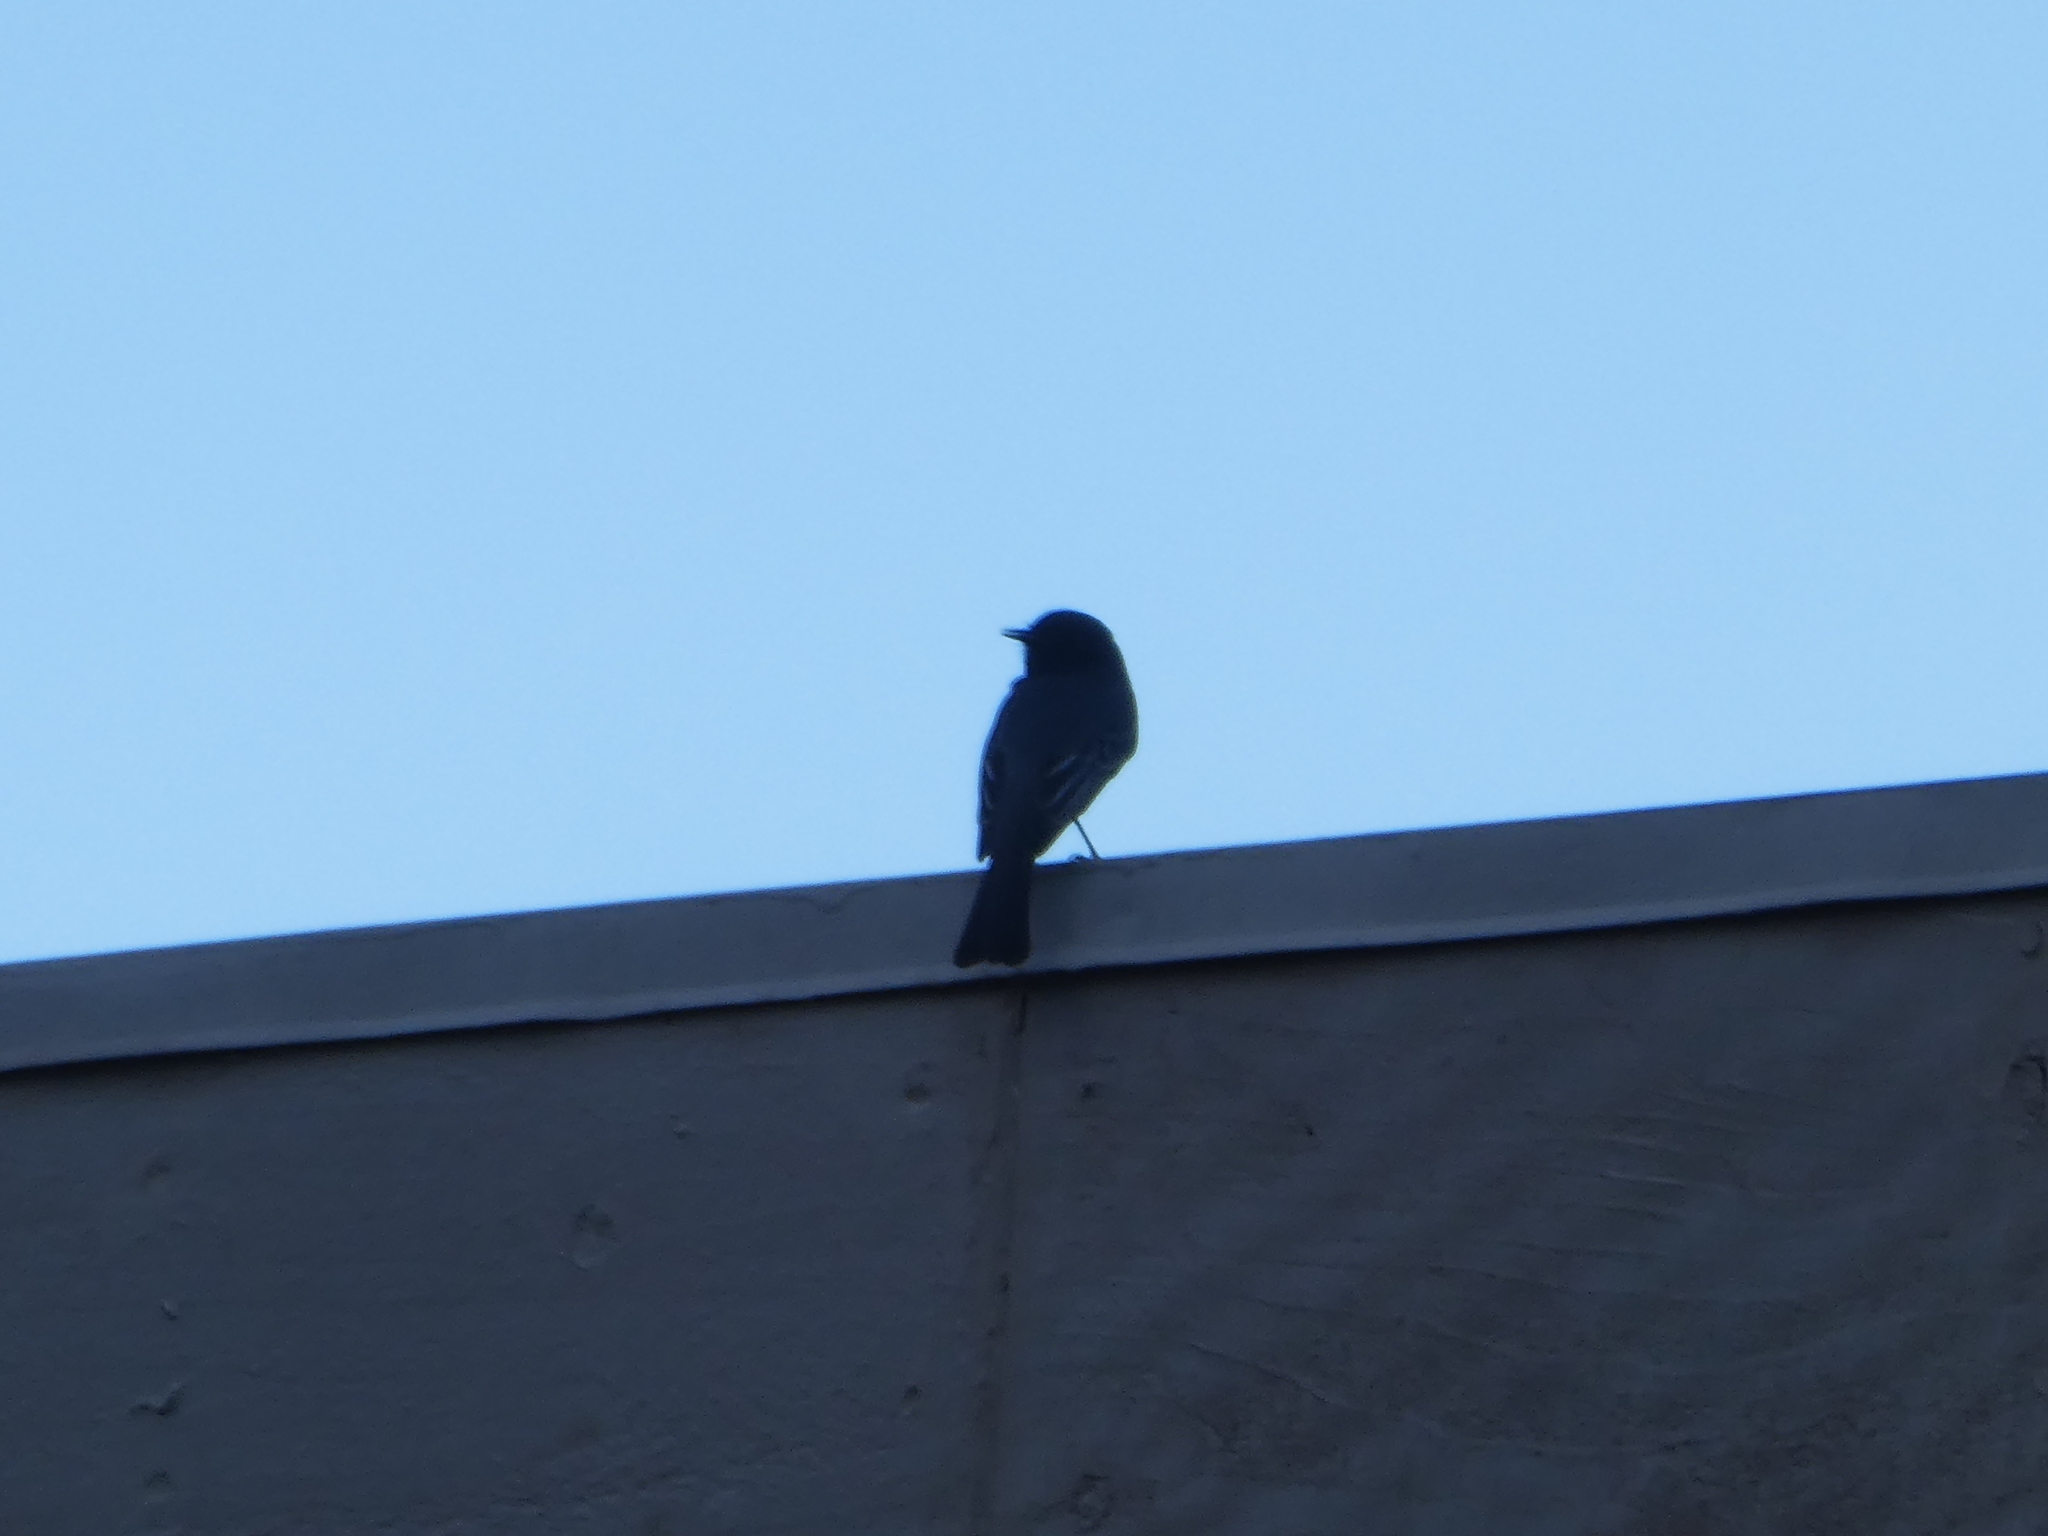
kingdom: Animalia
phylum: Chordata
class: Aves
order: Passeriformes
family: Tyrannidae
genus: Sayornis
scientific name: Sayornis nigricans
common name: Black phoebe
